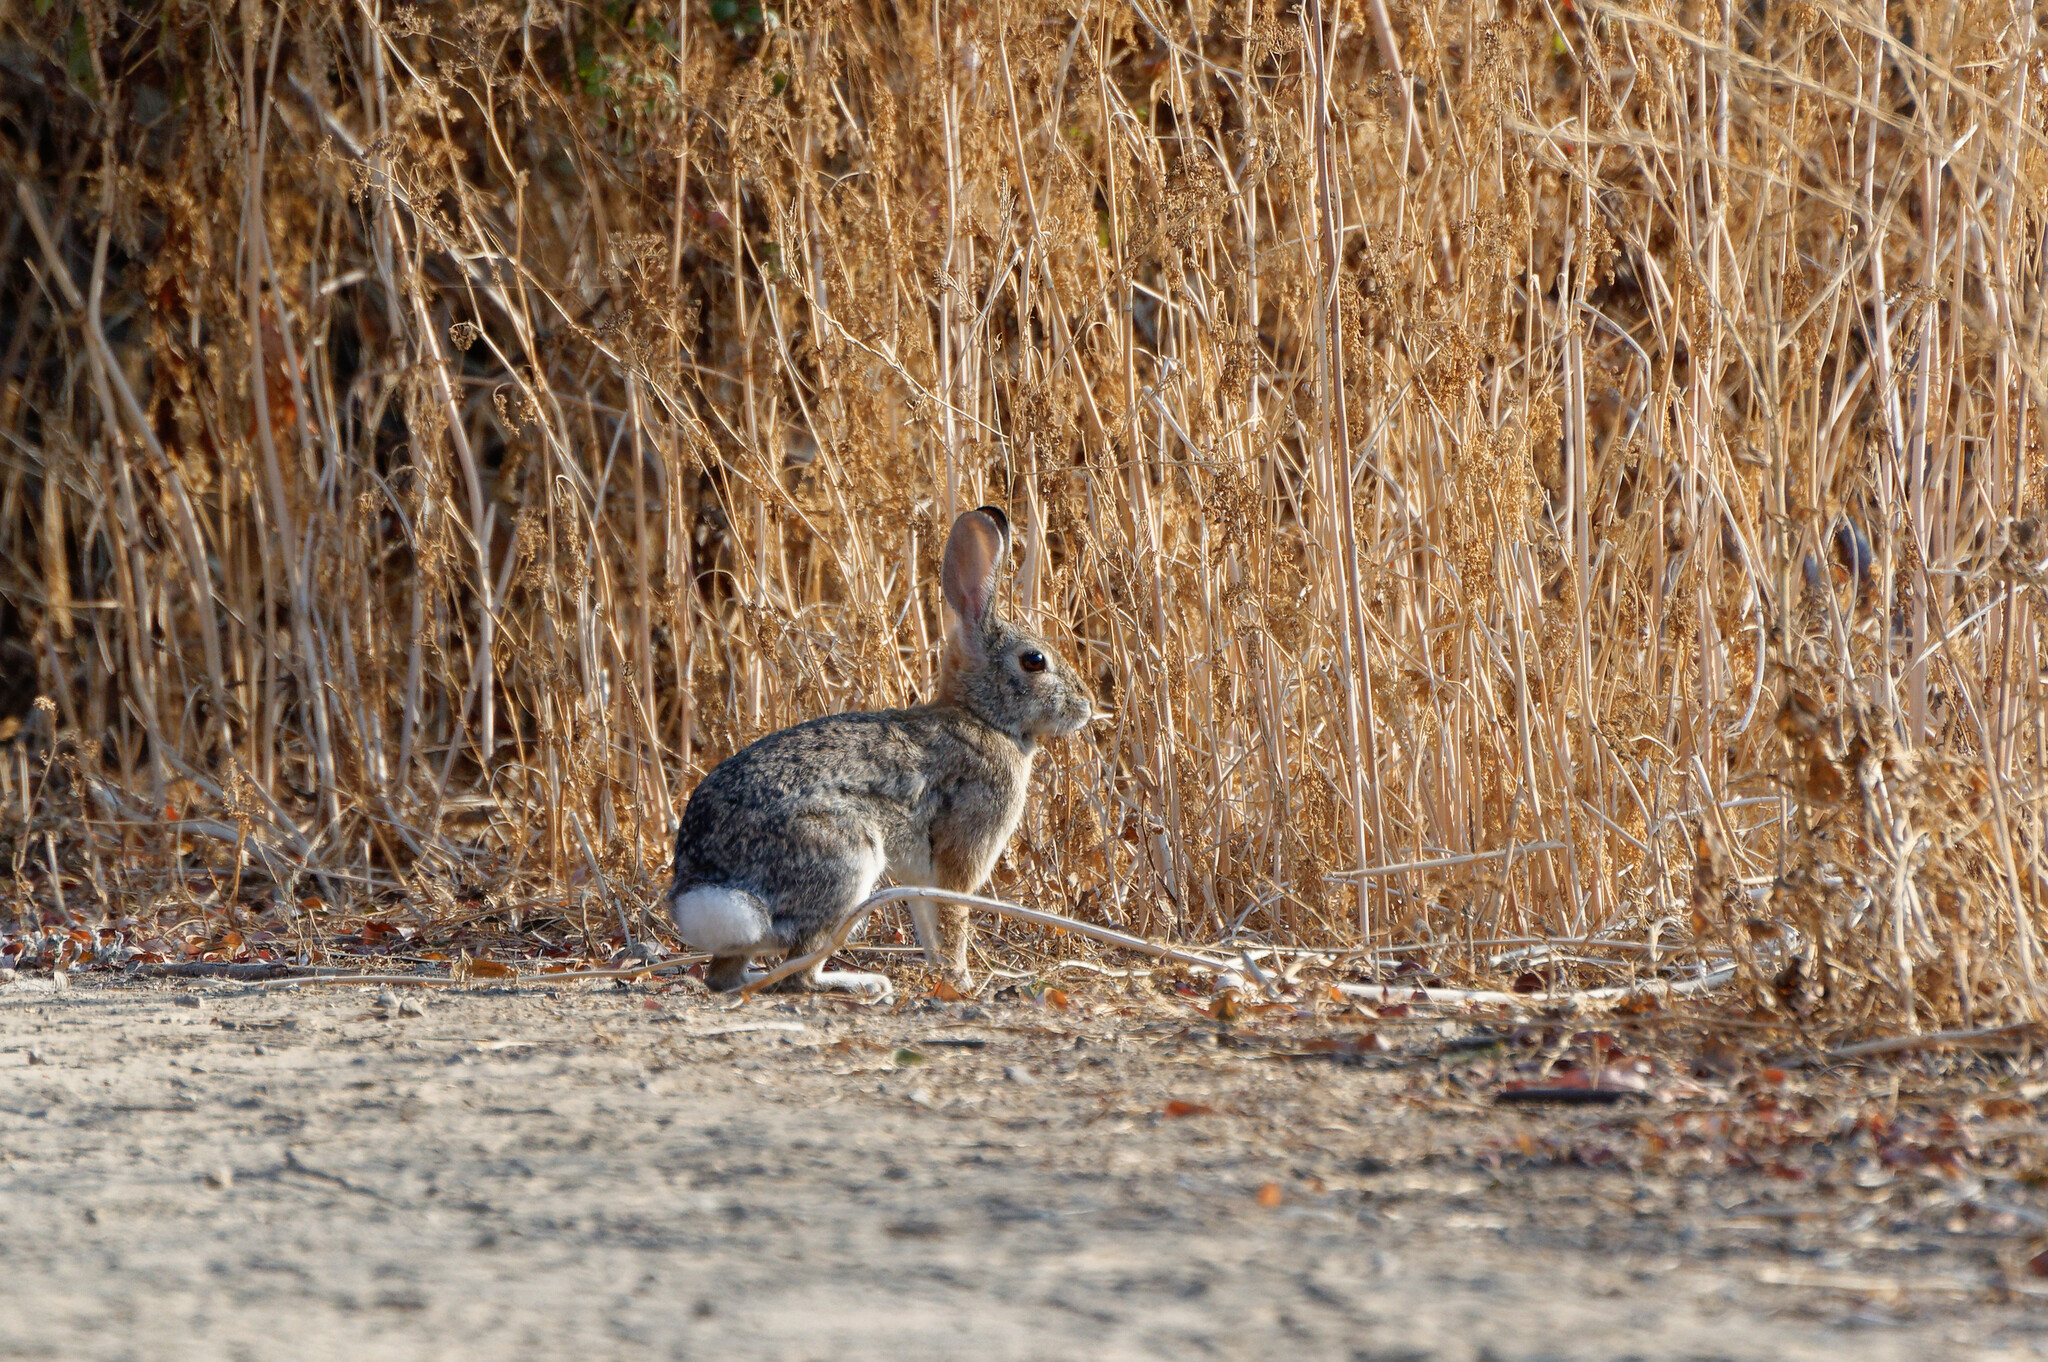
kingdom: Animalia
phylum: Chordata
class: Mammalia
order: Lagomorpha
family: Leporidae
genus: Sylvilagus
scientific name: Sylvilagus audubonii
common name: Desert cottontail
